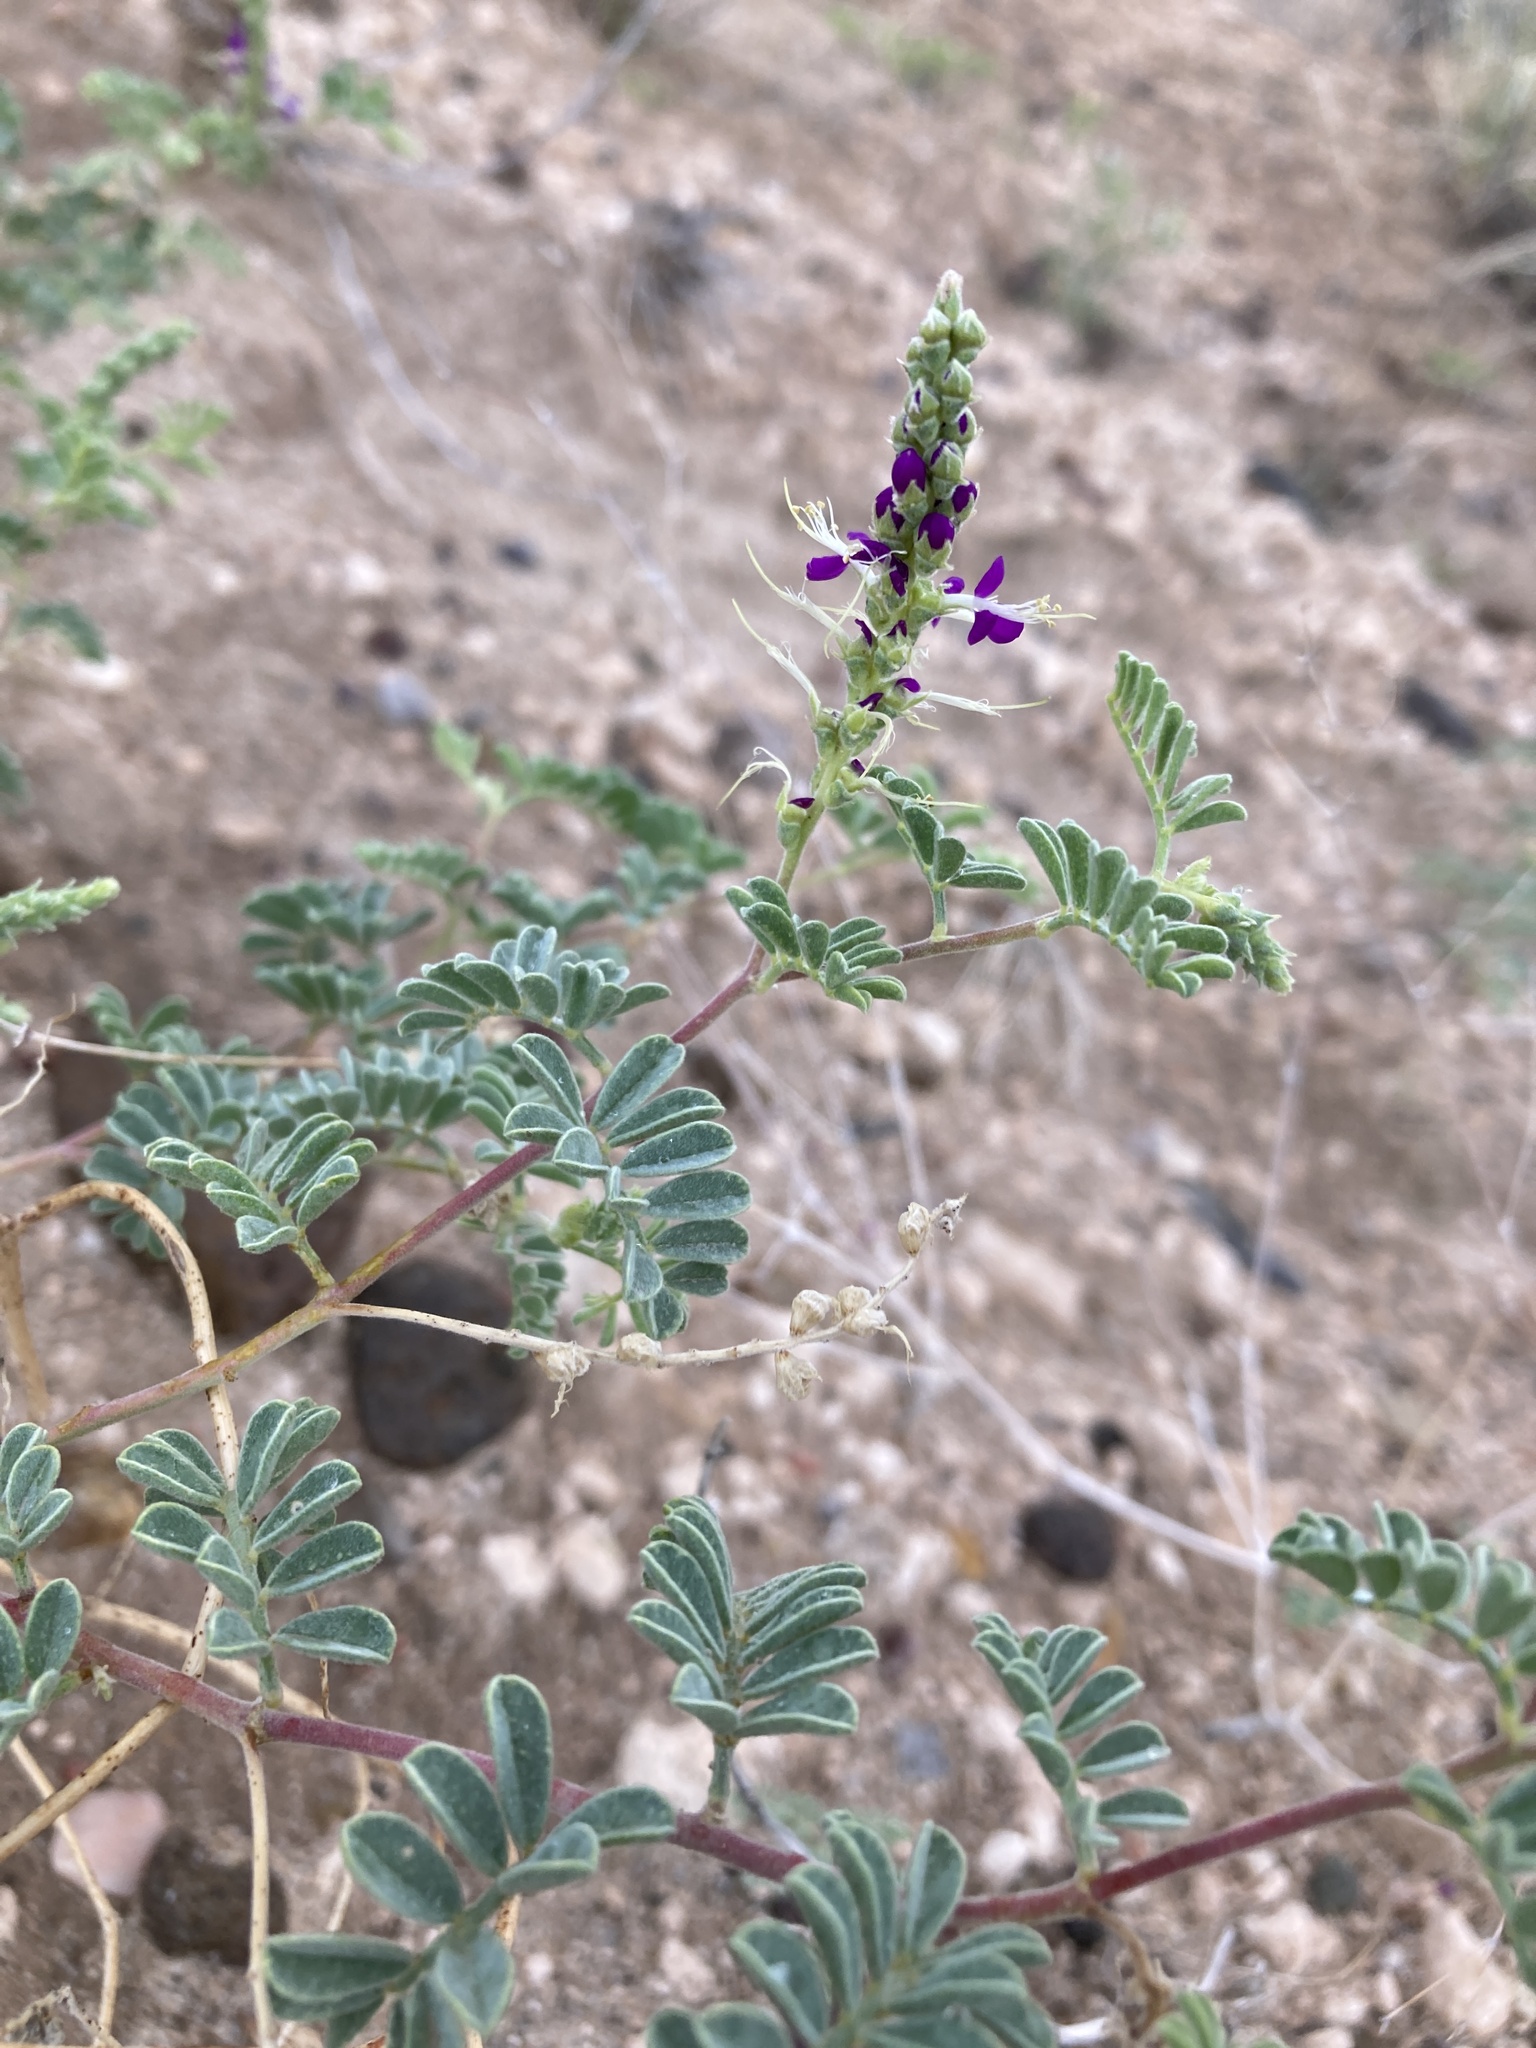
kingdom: Plantae
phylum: Tracheophyta
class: Magnoliopsida
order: Fabales
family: Fabaceae
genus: Dalea
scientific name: Dalea lanata
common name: Woolly dalea
